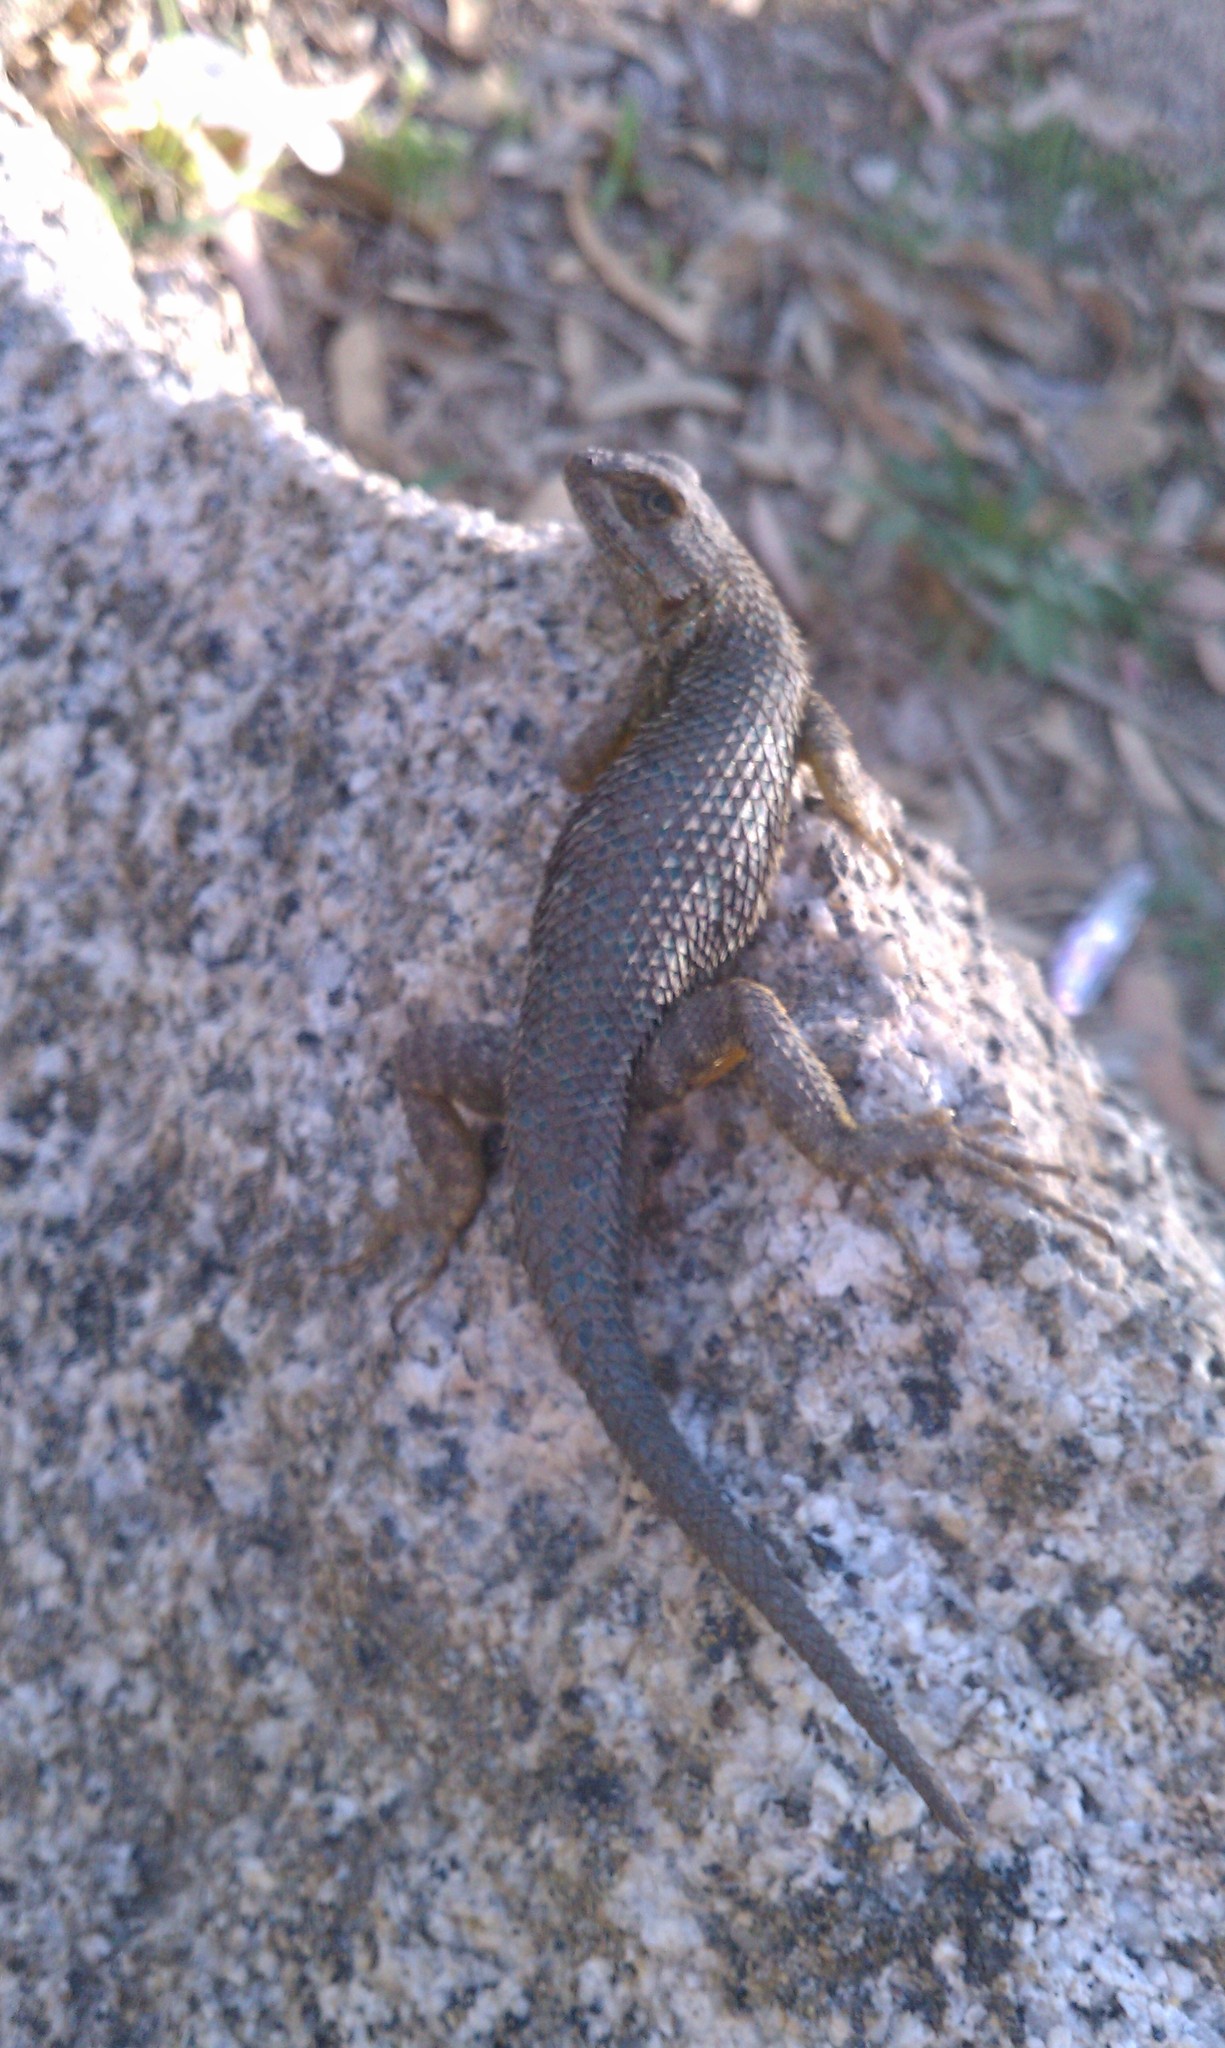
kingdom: Animalia
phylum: Chordata
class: Squamata
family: Phrynosomatidae
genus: Sceloporus
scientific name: Sceloporus occidentalis
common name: Western fence lizard
